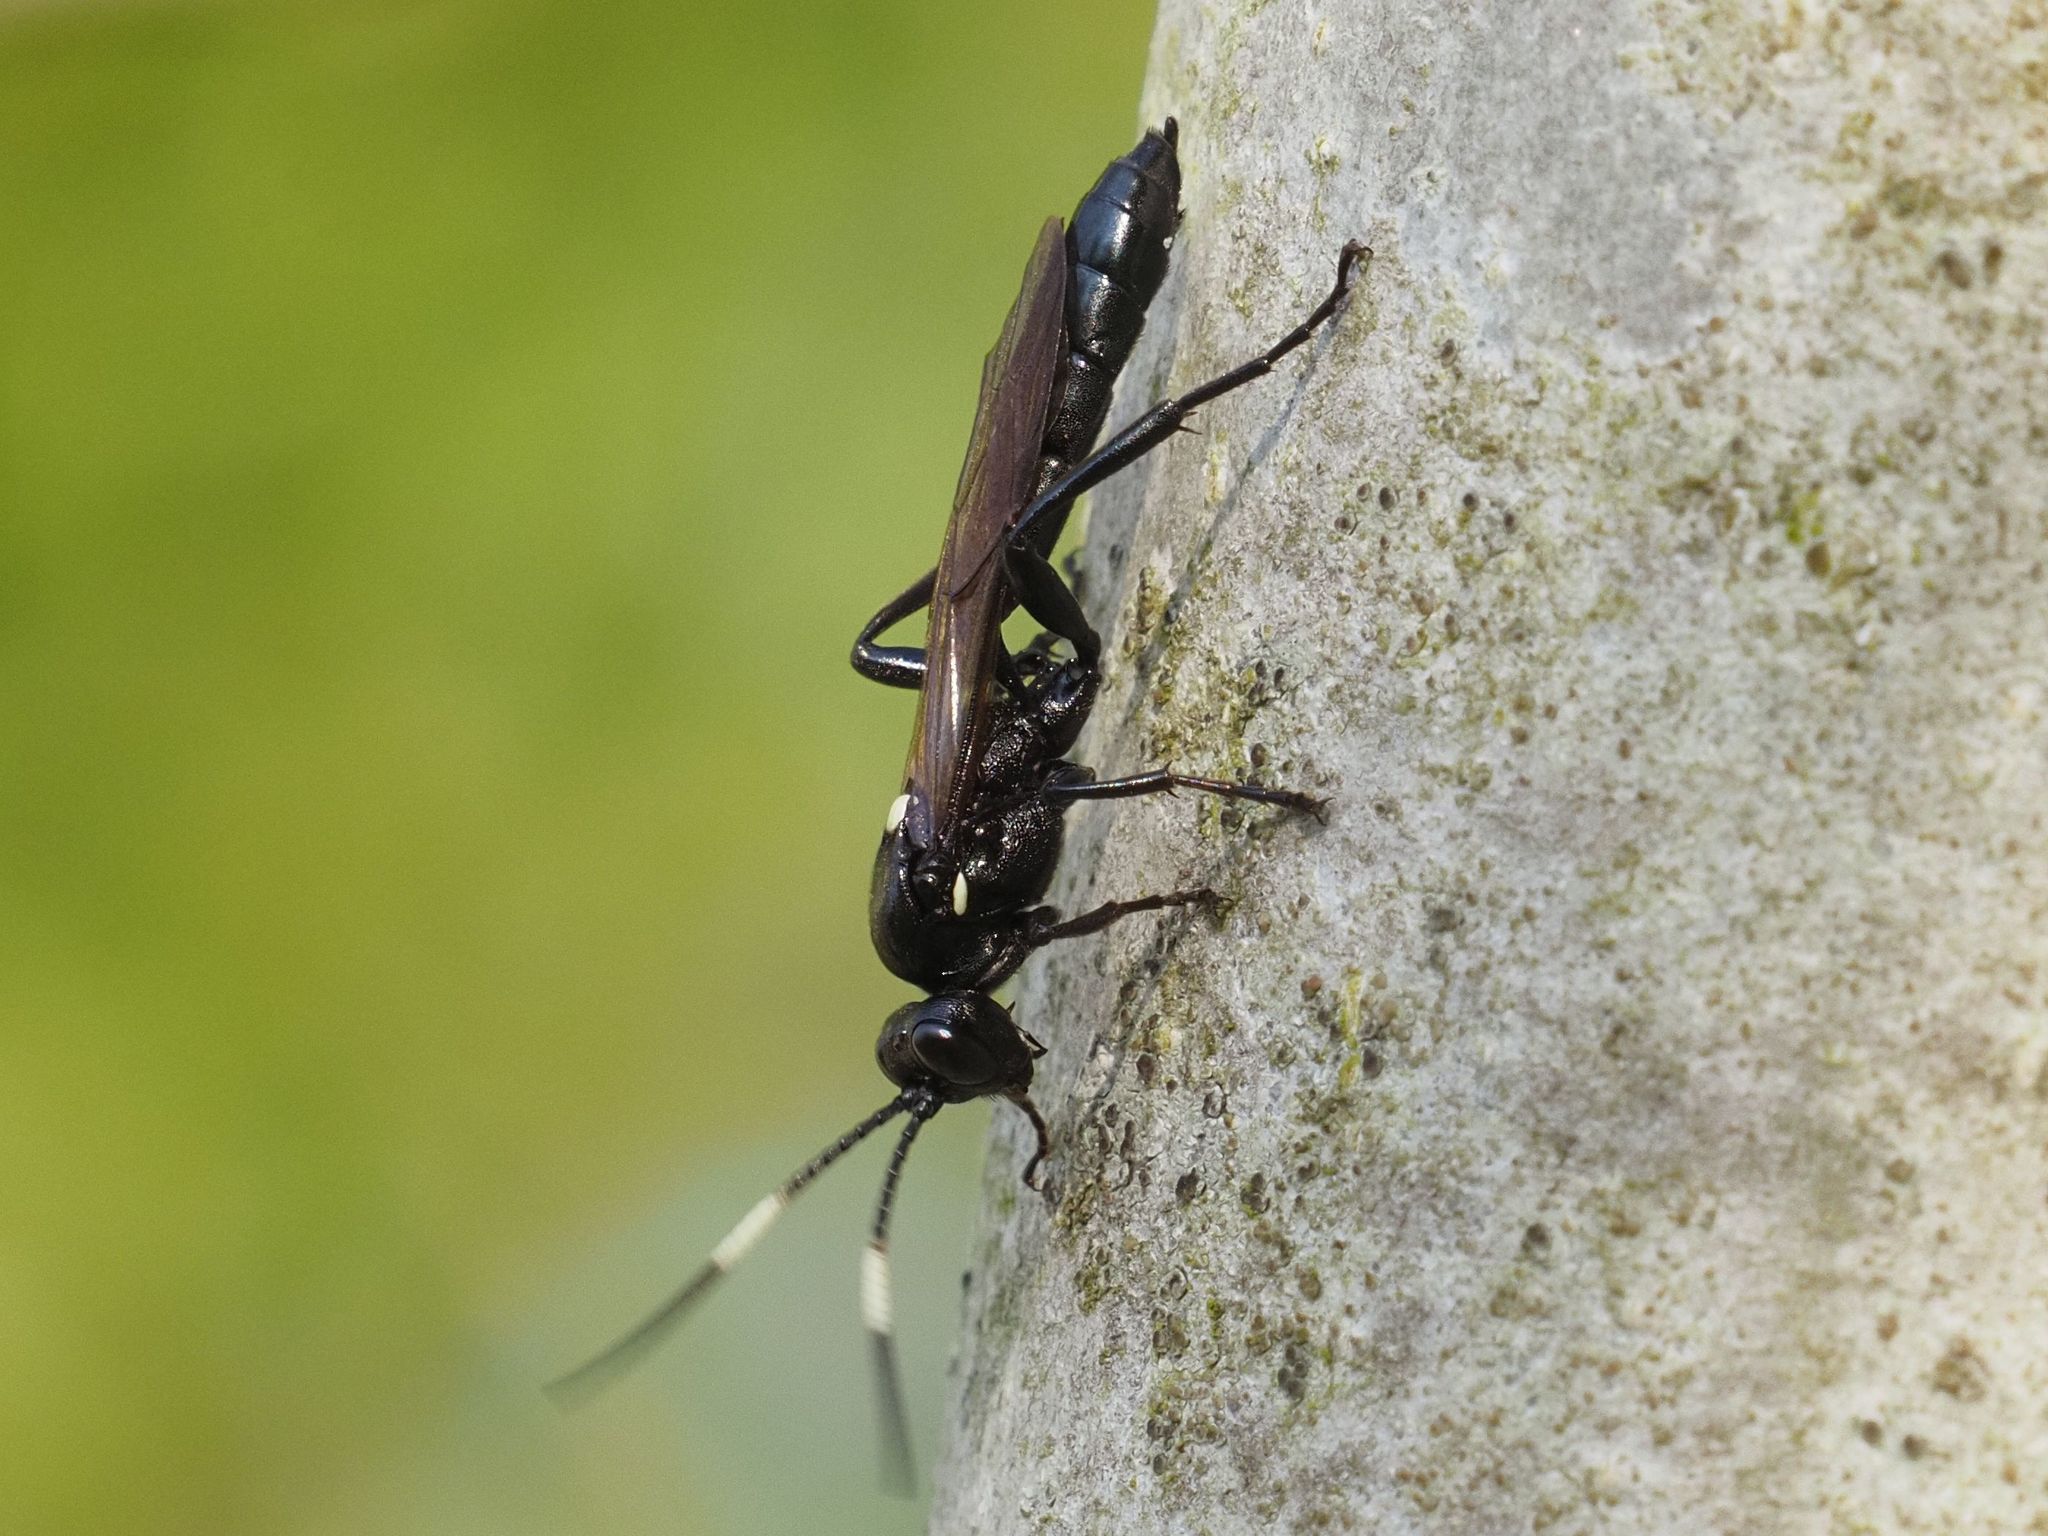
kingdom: Animalia
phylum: Arthropoda
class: Insecta
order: Hymenoptera
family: Ichneumonidae
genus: Ichneumon
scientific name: Ichneumon lugens
